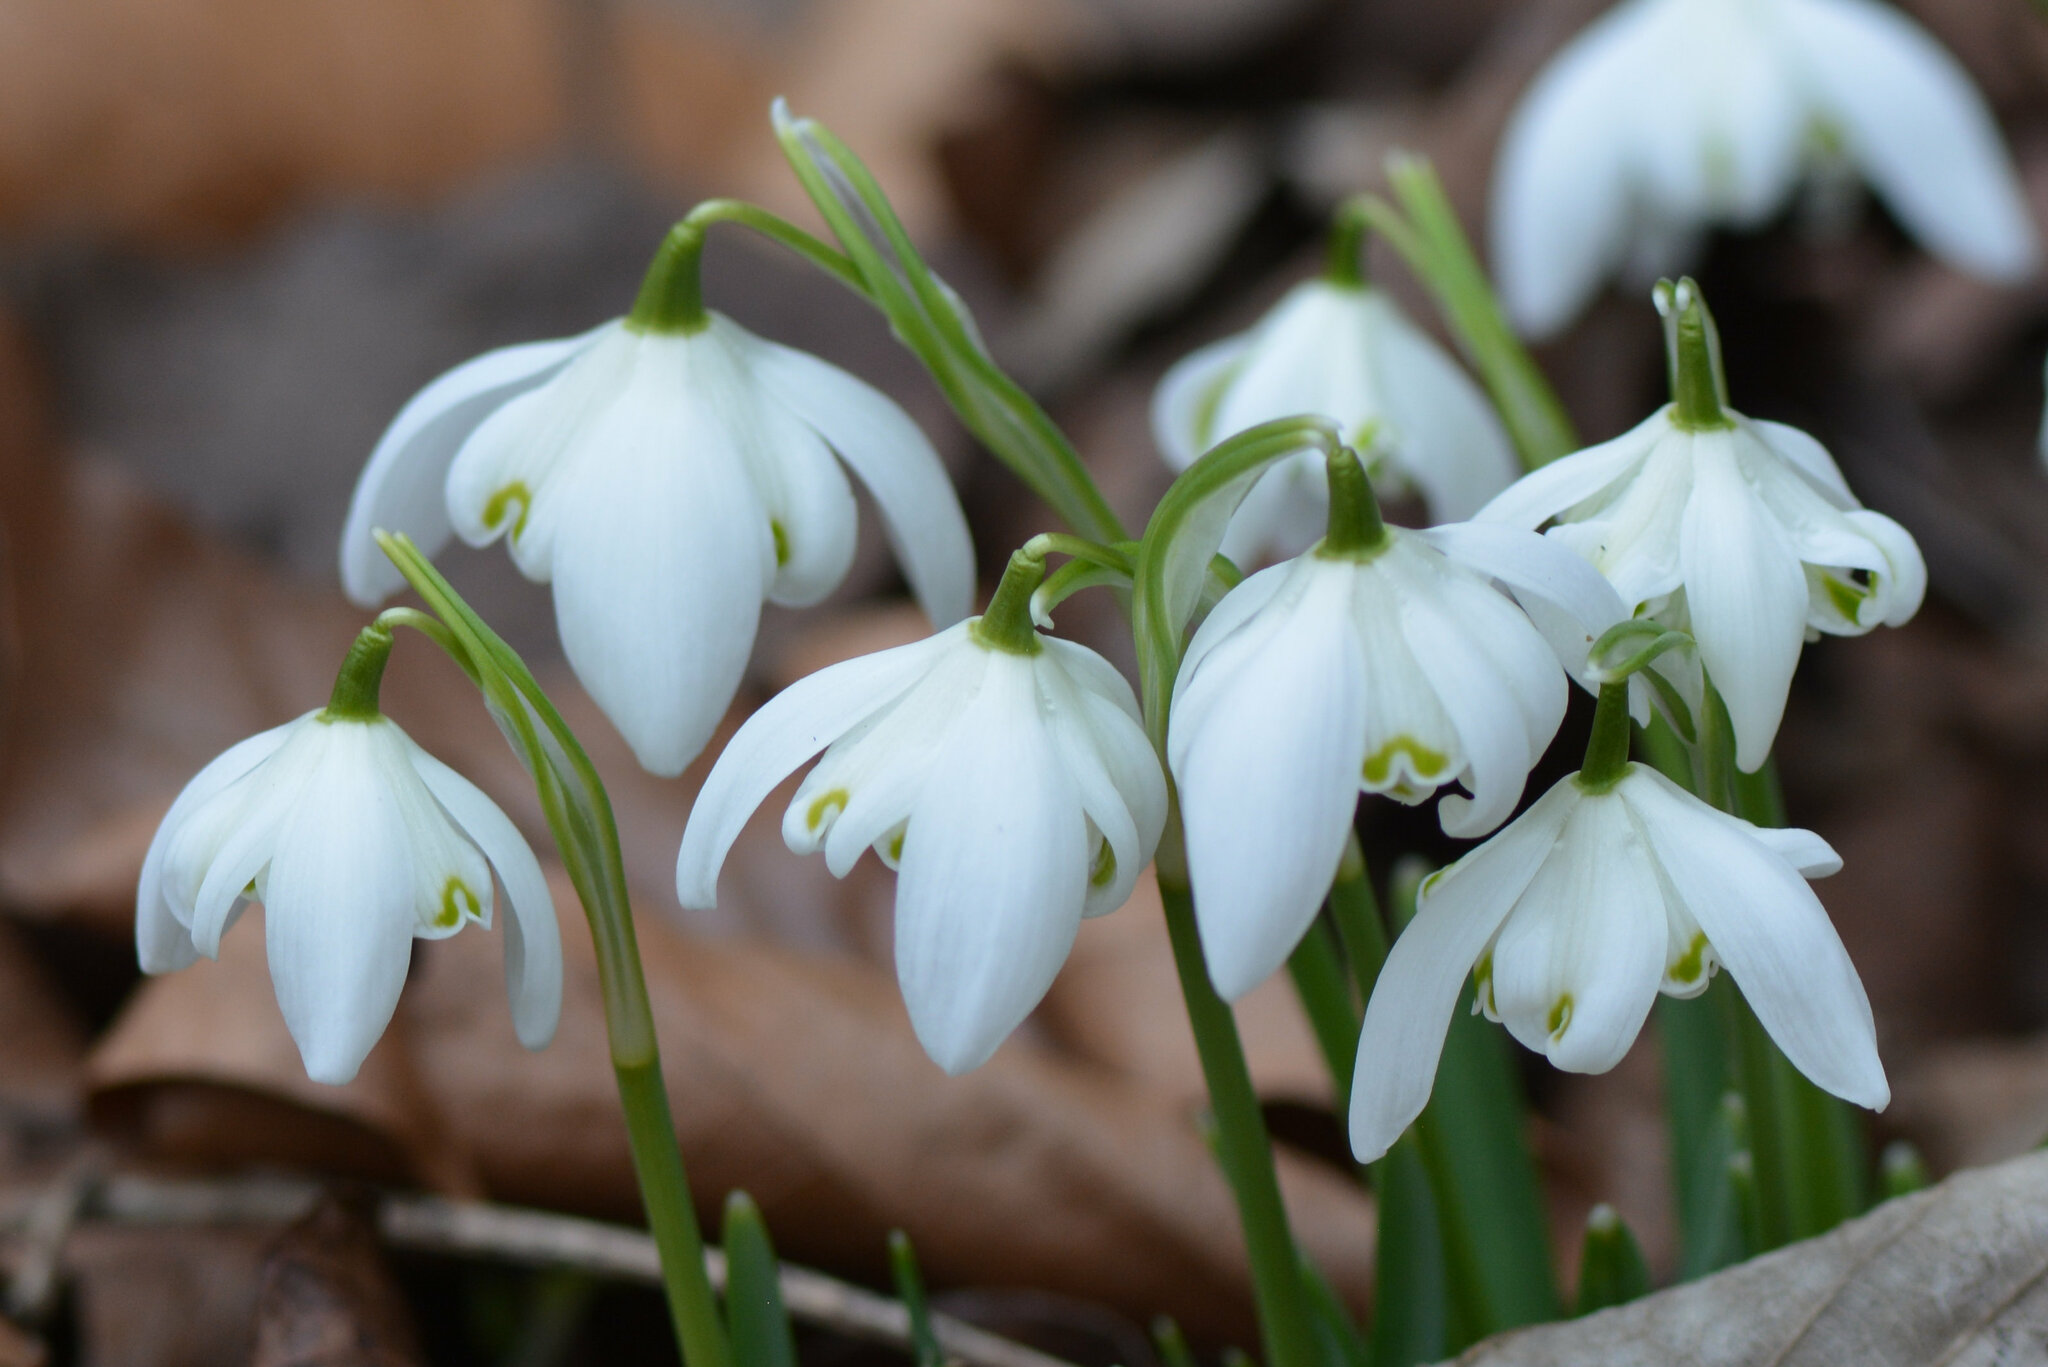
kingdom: Plantae
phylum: Tracheophyta
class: Liliopsida
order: Asparagales
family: Amaryllidaceae
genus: Galanthus
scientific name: Galanthus nivalis
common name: Snowdrop
